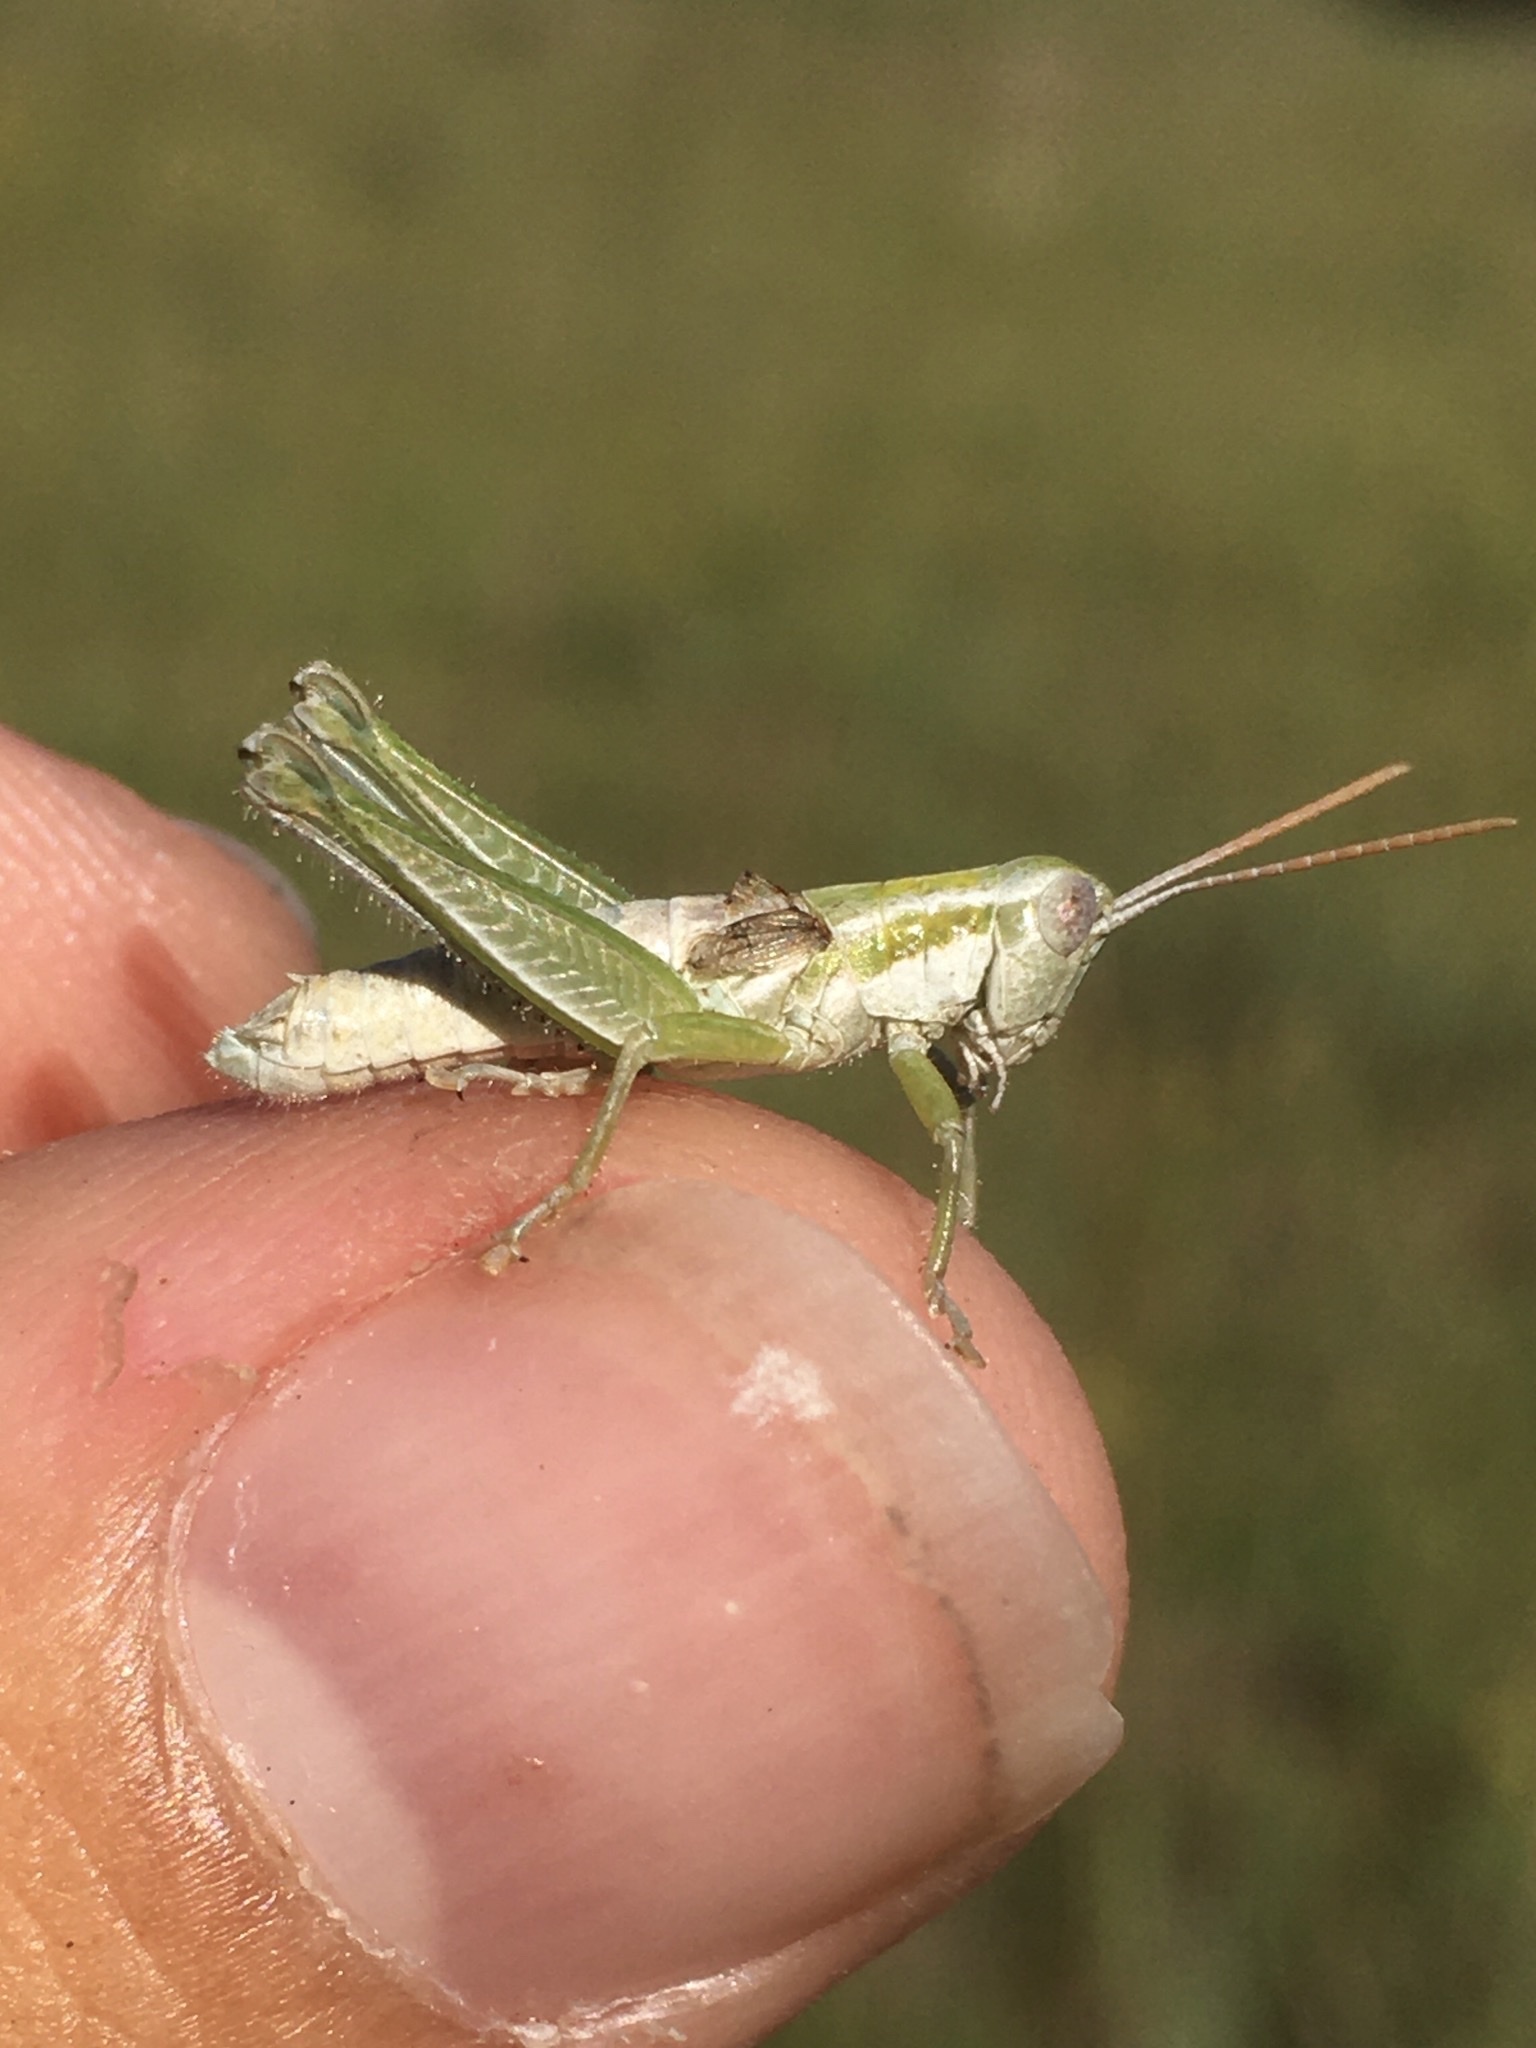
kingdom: Animalia
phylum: Arthropoda
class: Insecta
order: Orthoptera
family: Acrididae
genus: Hypochlora
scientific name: Hypochlora alba
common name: Cudweed grasshopper
